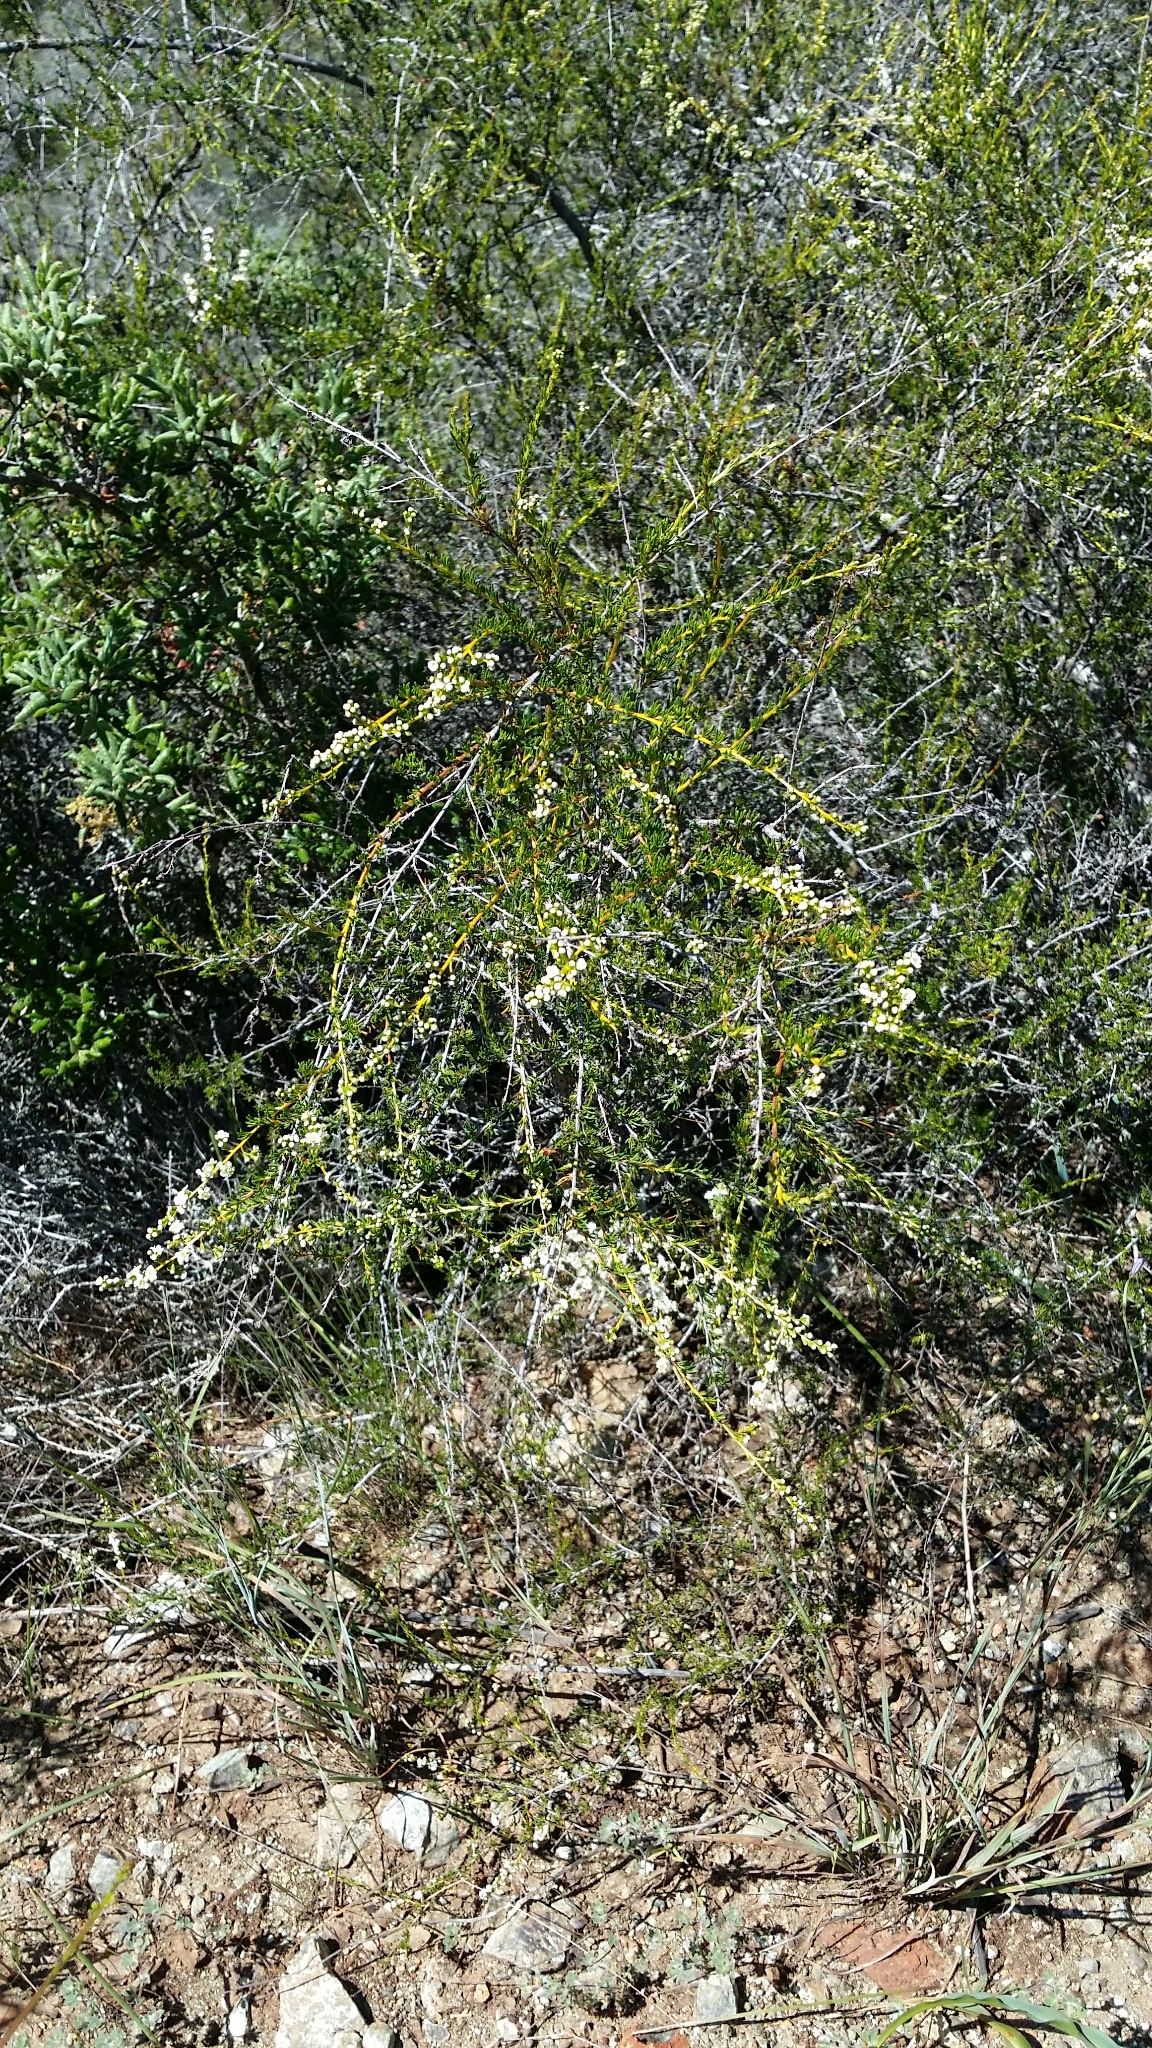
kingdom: Plantae
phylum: Tracheophyta
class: Magnoliopsida
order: Rosales
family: Rosaceae
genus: Adenostoma
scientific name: Adenostoma fasciculatum
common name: Chamise
